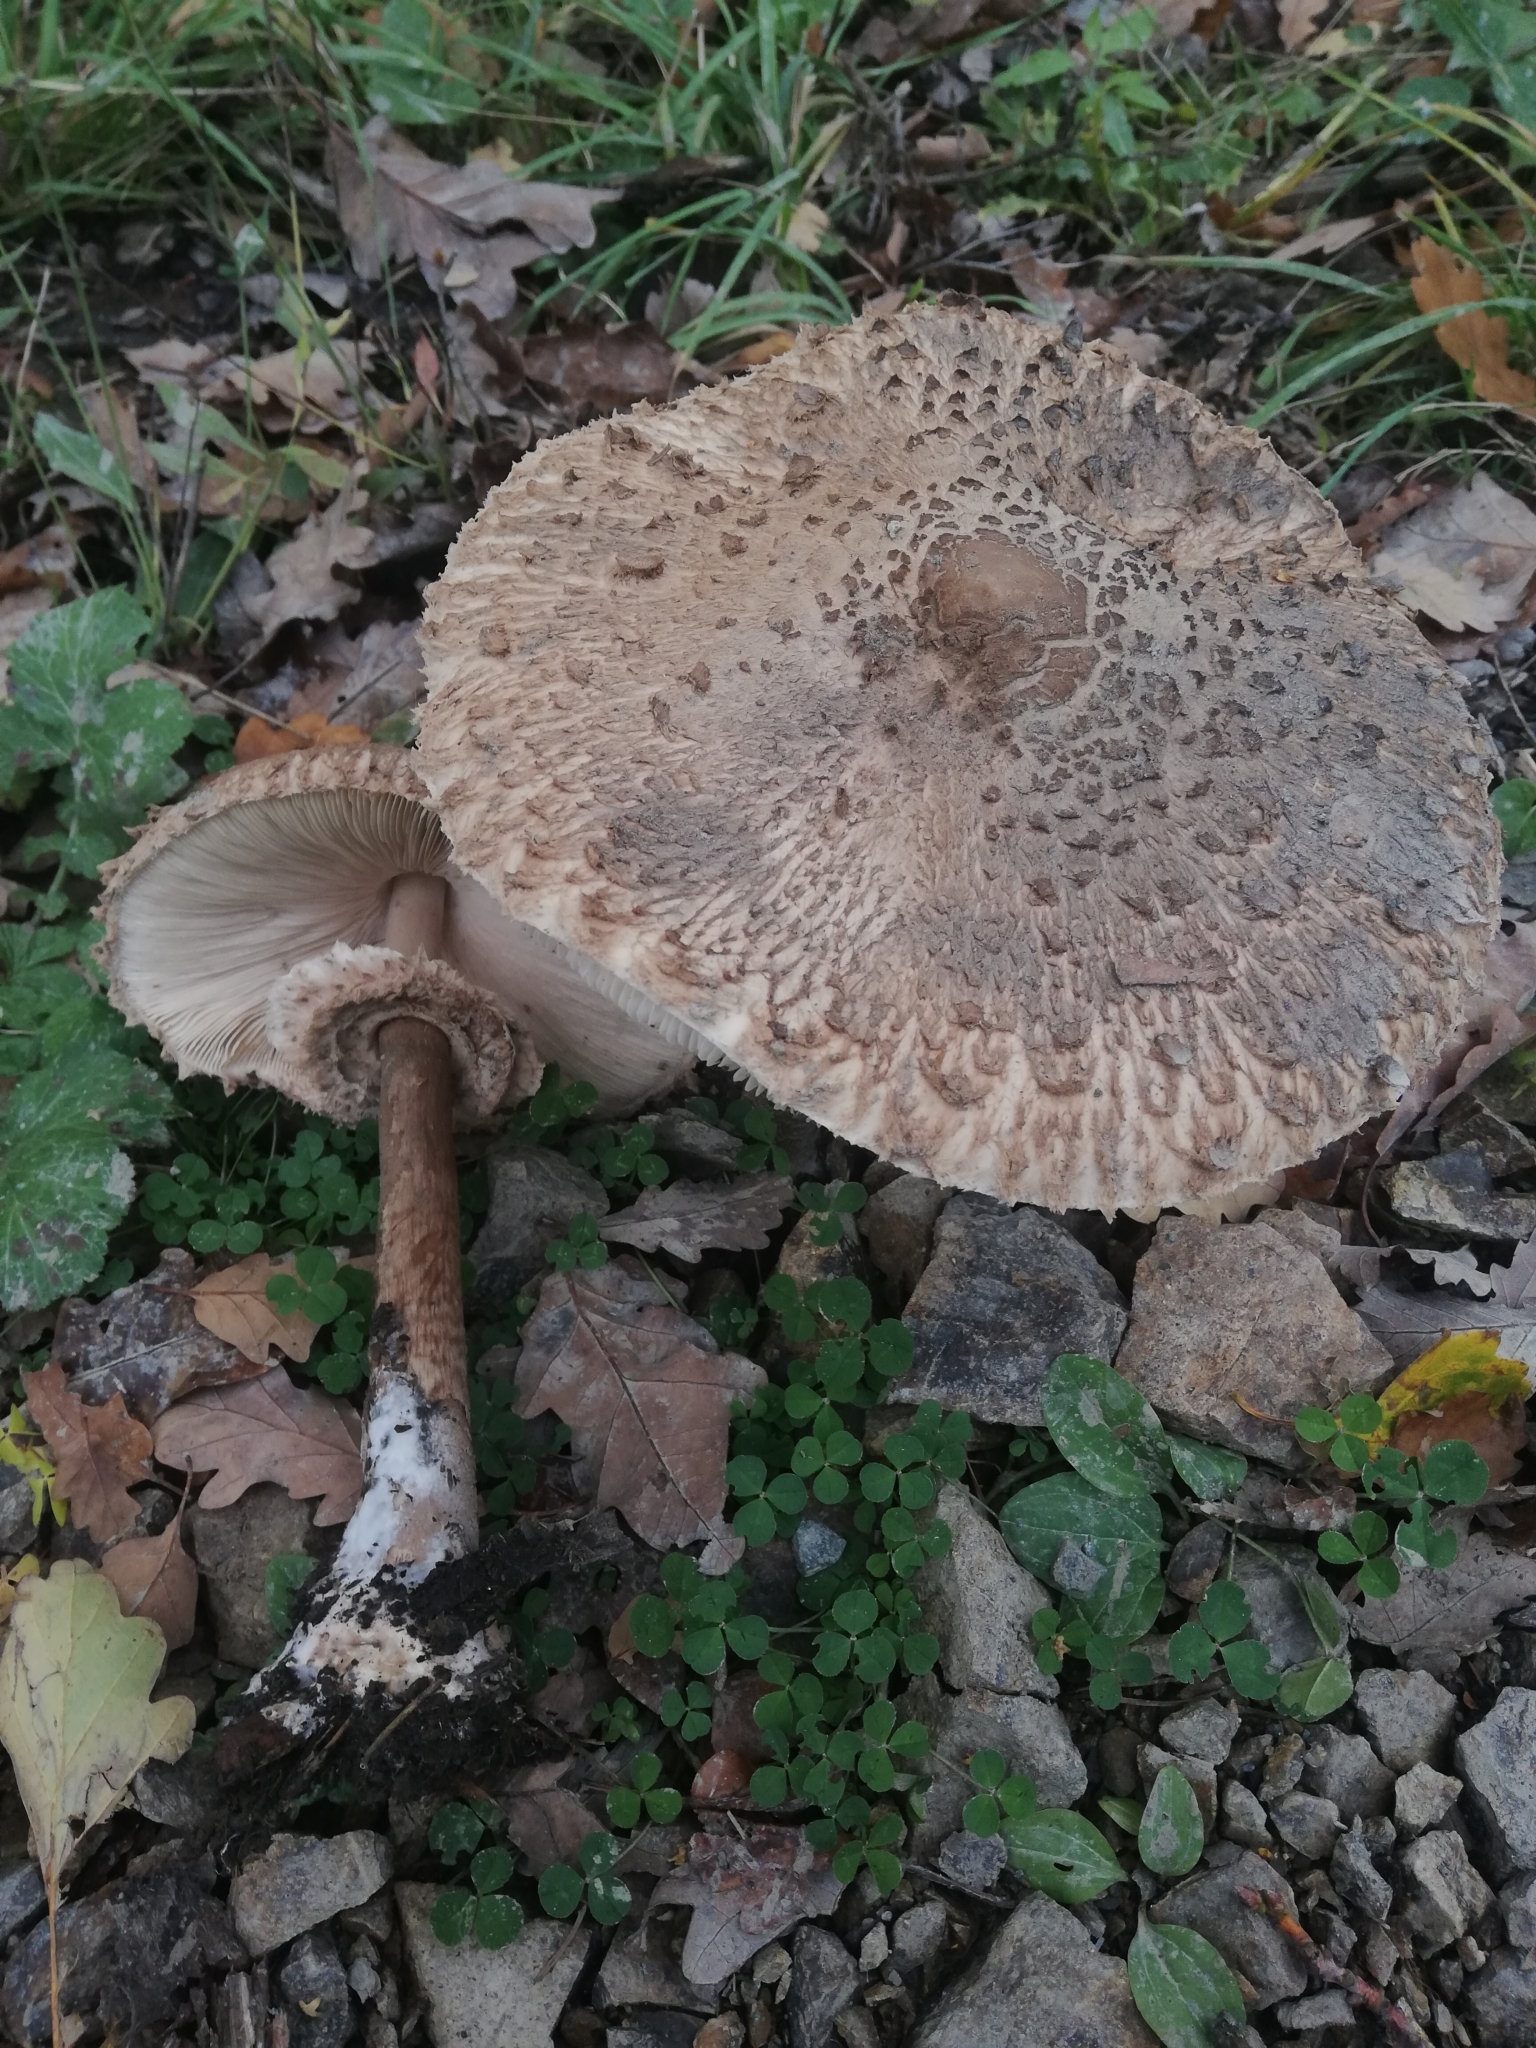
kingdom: Fungi
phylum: Basidiomycota
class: Agaricomycetes
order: Agaricales
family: Agaricaceae
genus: Macrolepiota
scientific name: Macrolepiota procera
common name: Parasol
